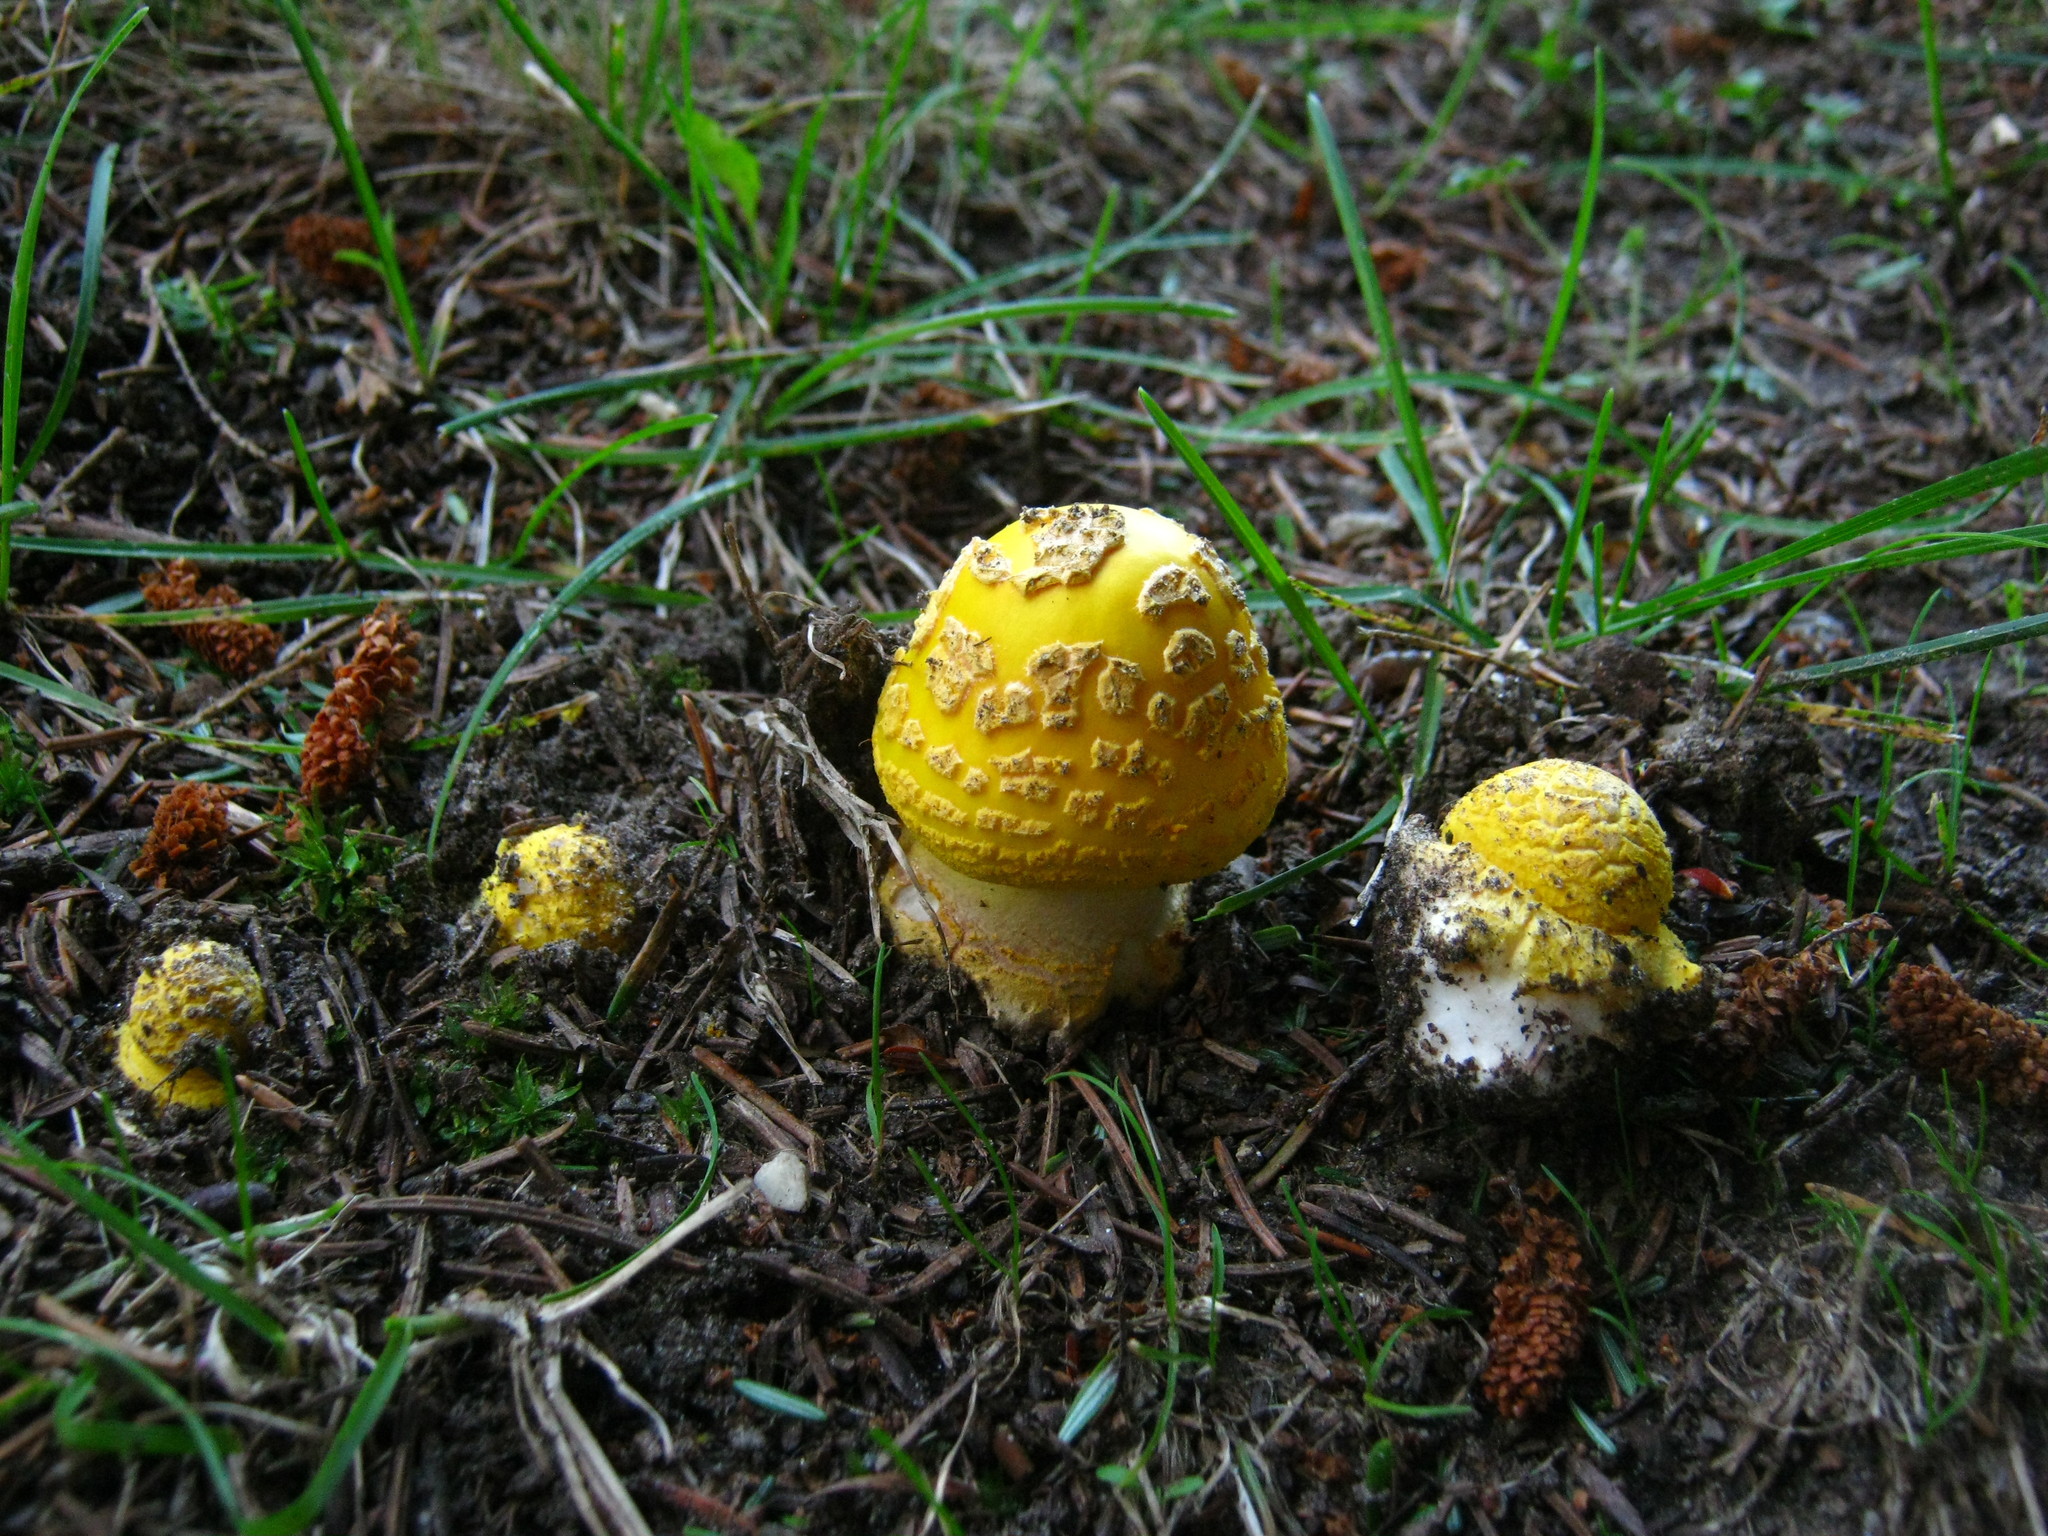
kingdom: Fungi
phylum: Basidiomycota
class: Agaricomycetes
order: Agaricales
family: Amanitaceae
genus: Amanita
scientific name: Amanita flavorubens
